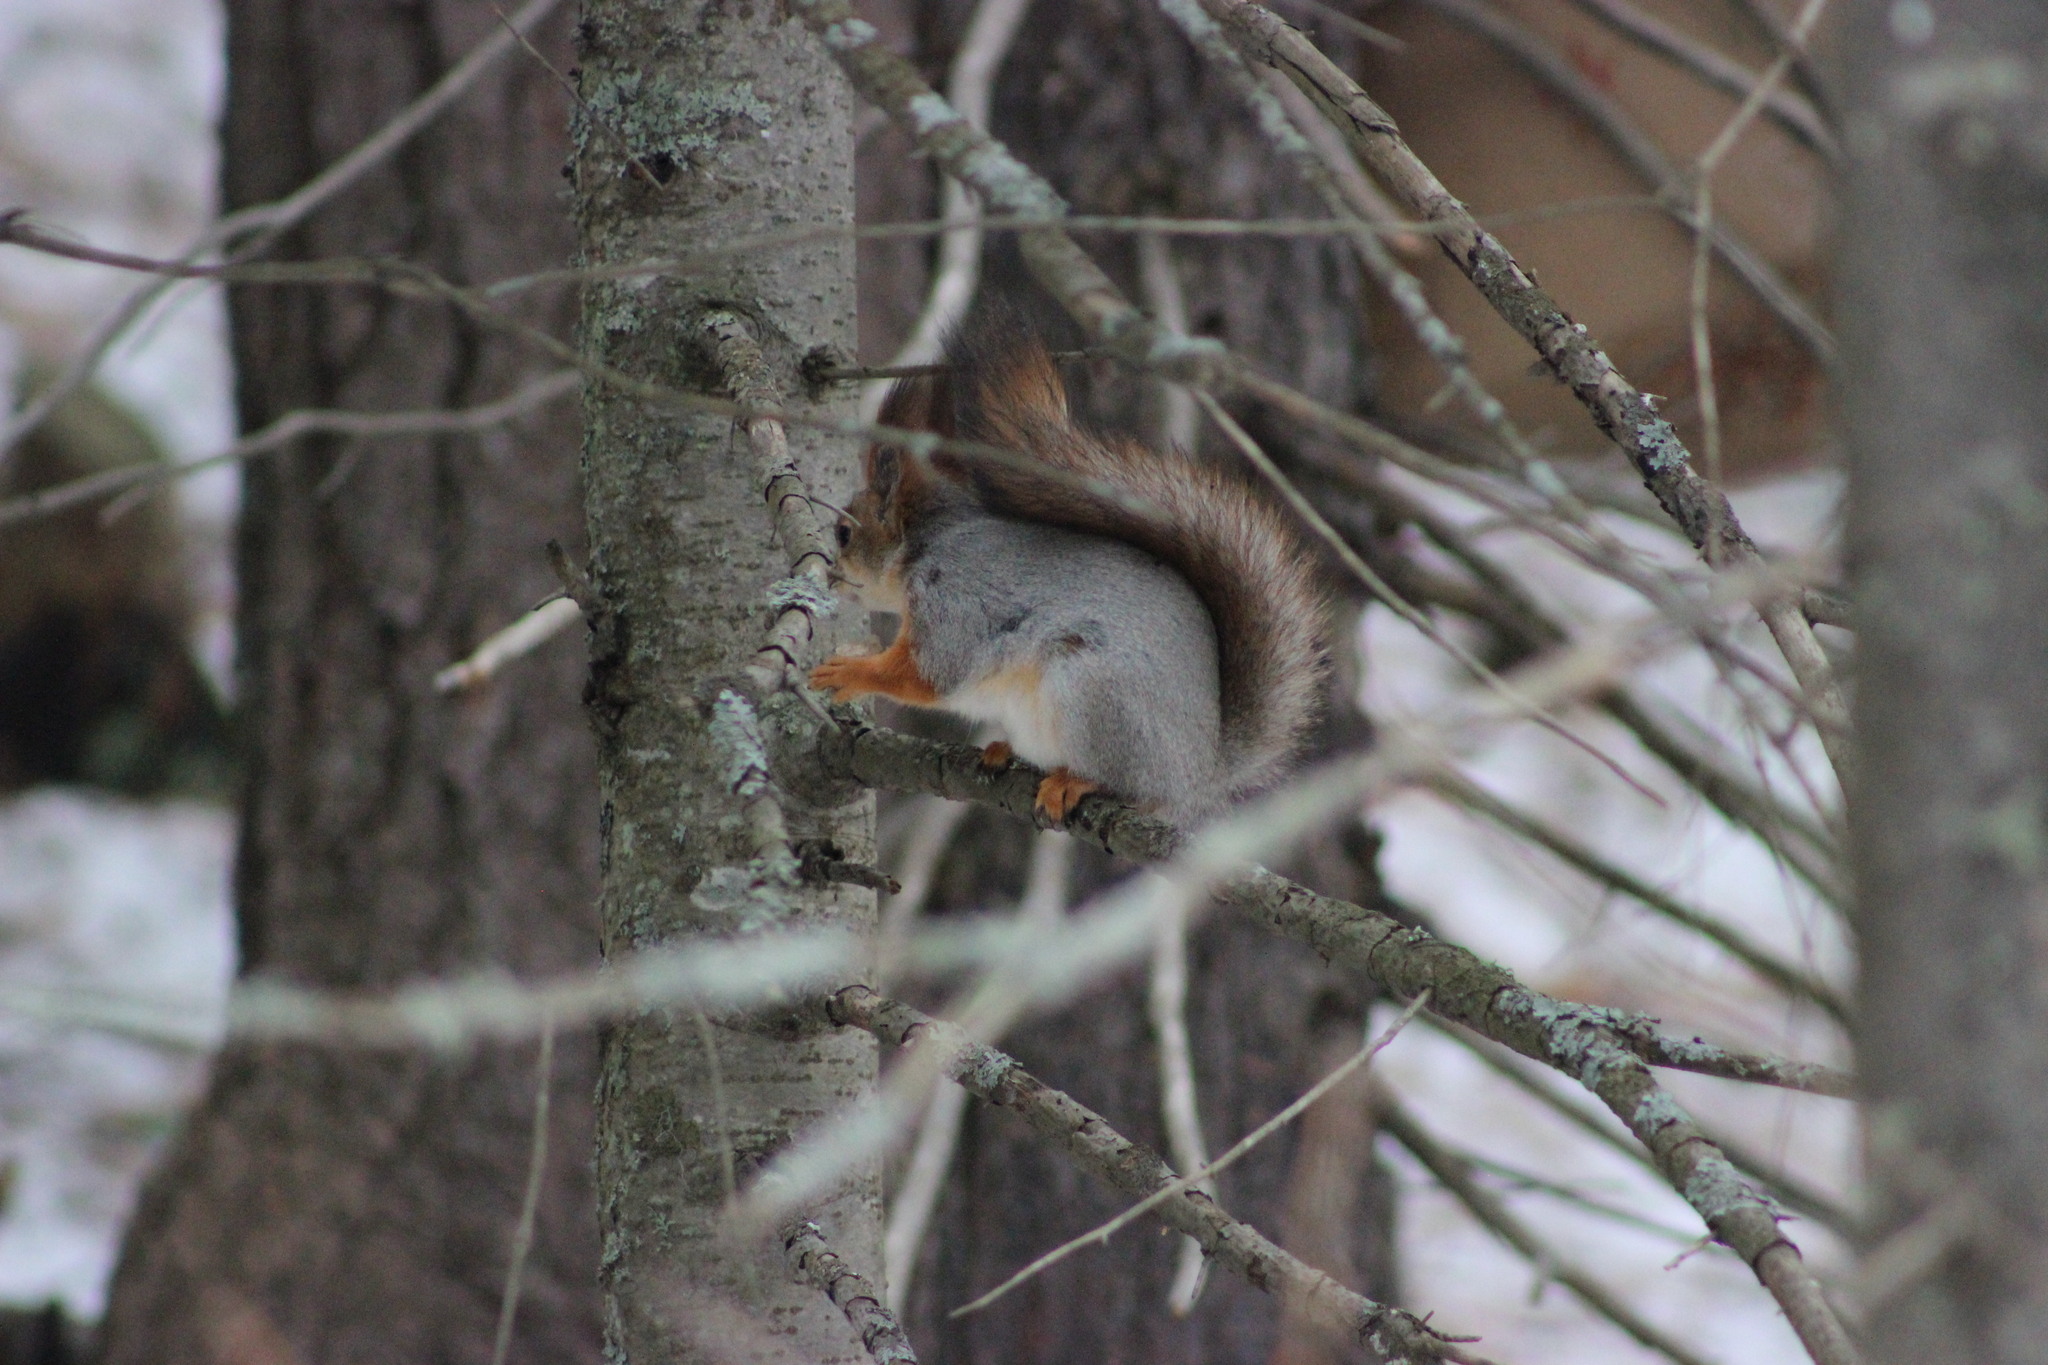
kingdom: Animalia
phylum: Chordata
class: Mammalia
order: Rodentia
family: Sciuridae
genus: Sciurus
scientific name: Sciurus vulgaris
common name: Eurasian red squirrel
